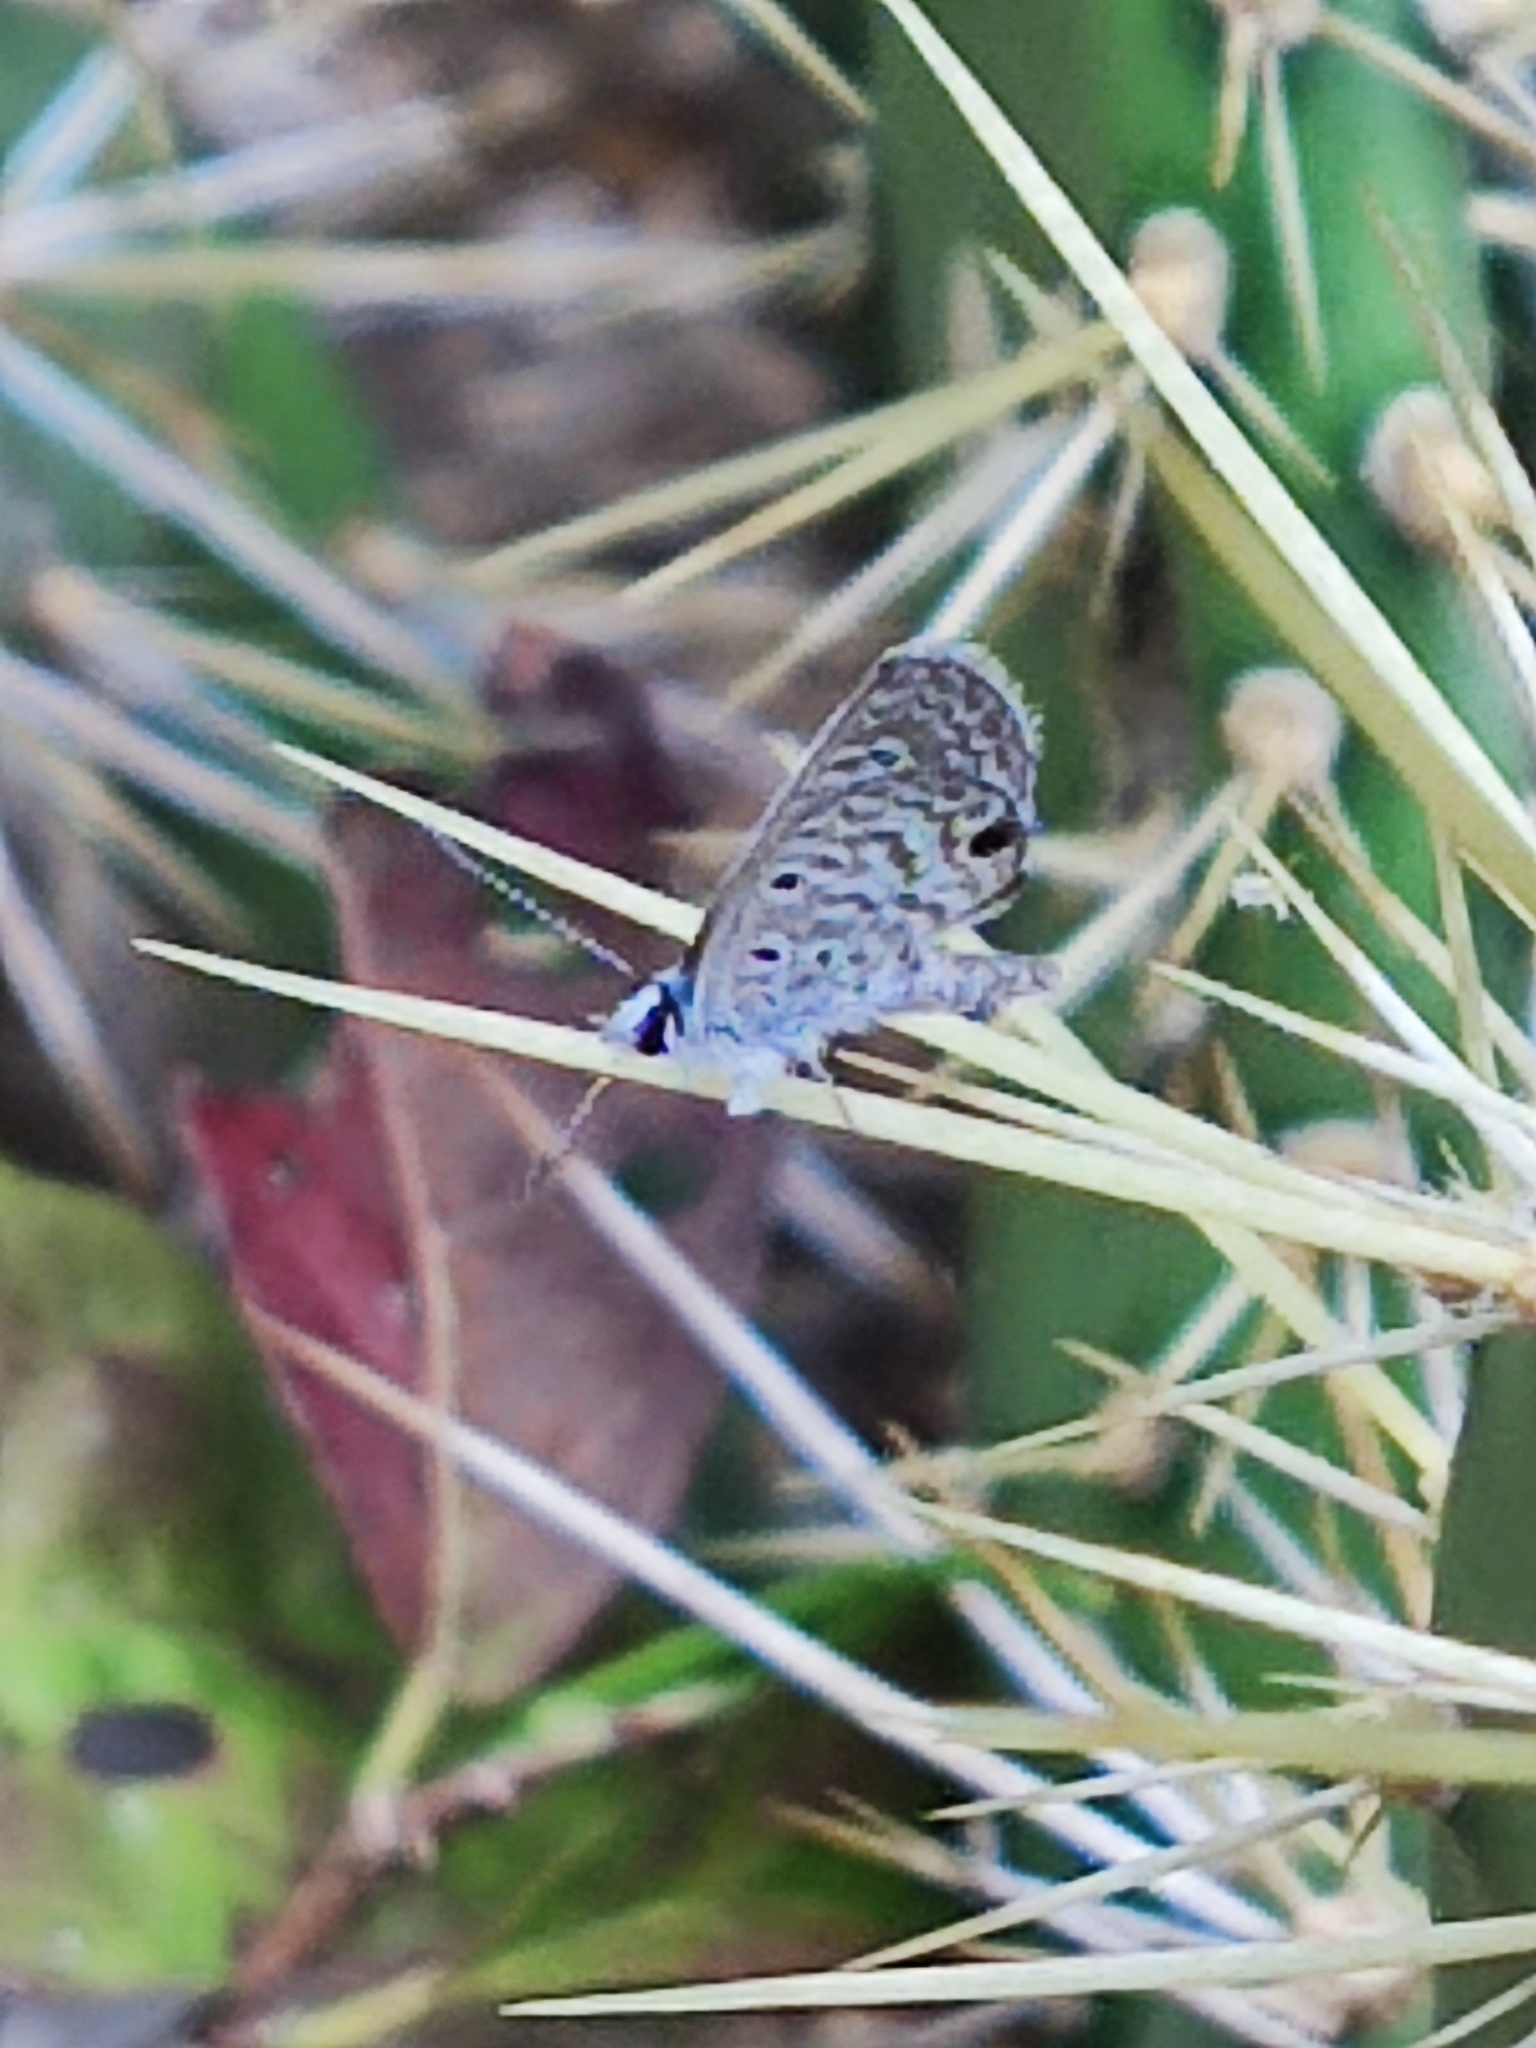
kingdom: Animalia
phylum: Arthropoda
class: Insecta
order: Lepidoptera
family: Lycaenidae
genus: Hemiargus
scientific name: Hemiargus hanno
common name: Common blue
